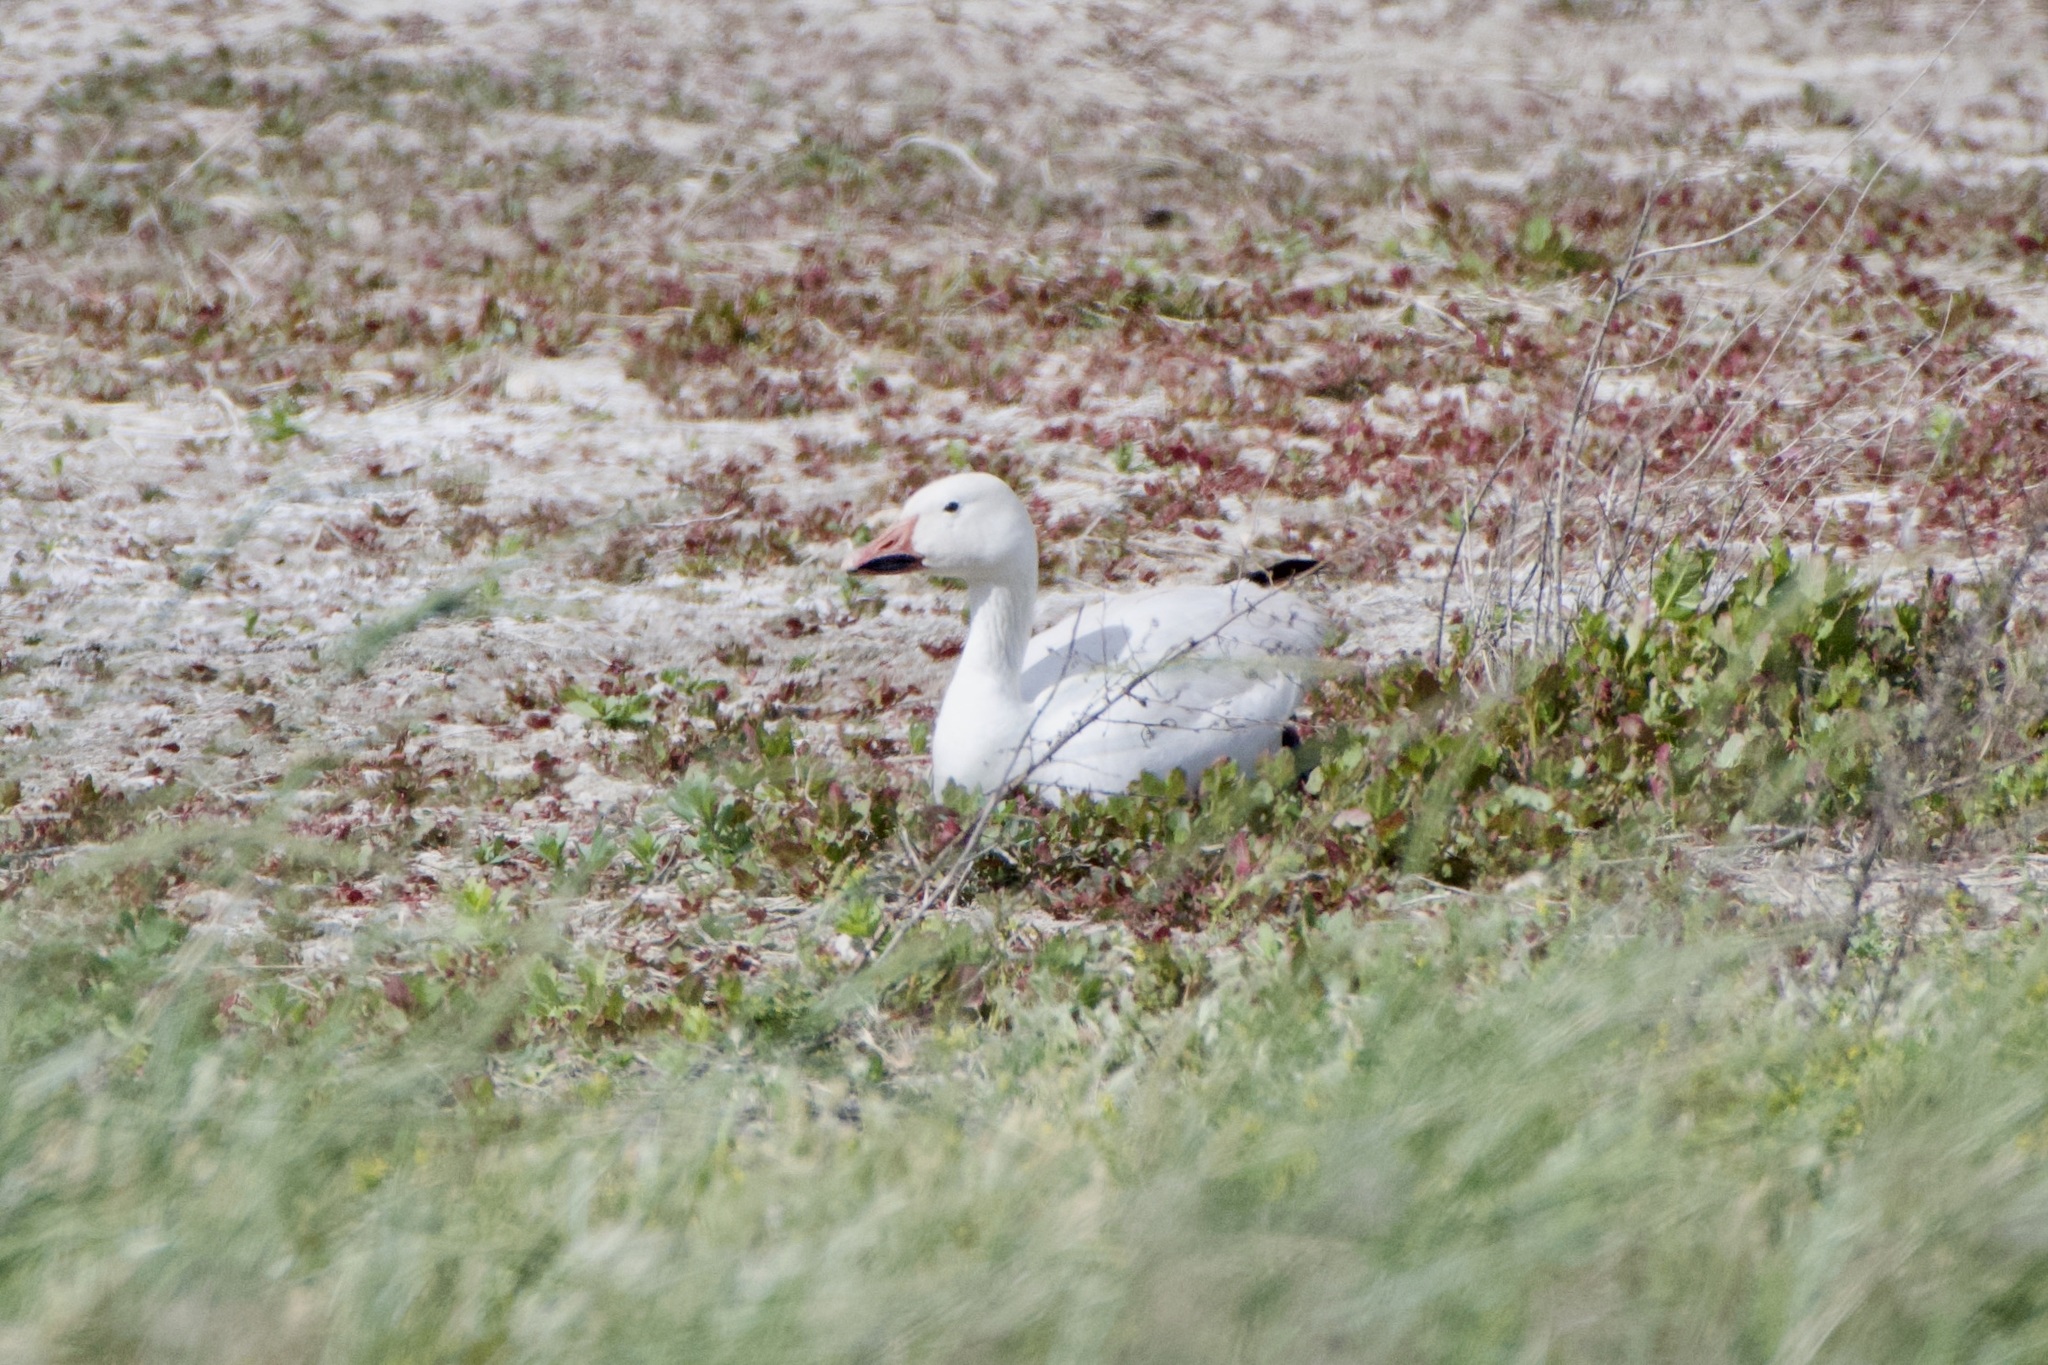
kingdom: Animalia
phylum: Chordata
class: Aves
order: Anseriformes
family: Anatidae
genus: Anser
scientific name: Anser caerulescens
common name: Snow goose
